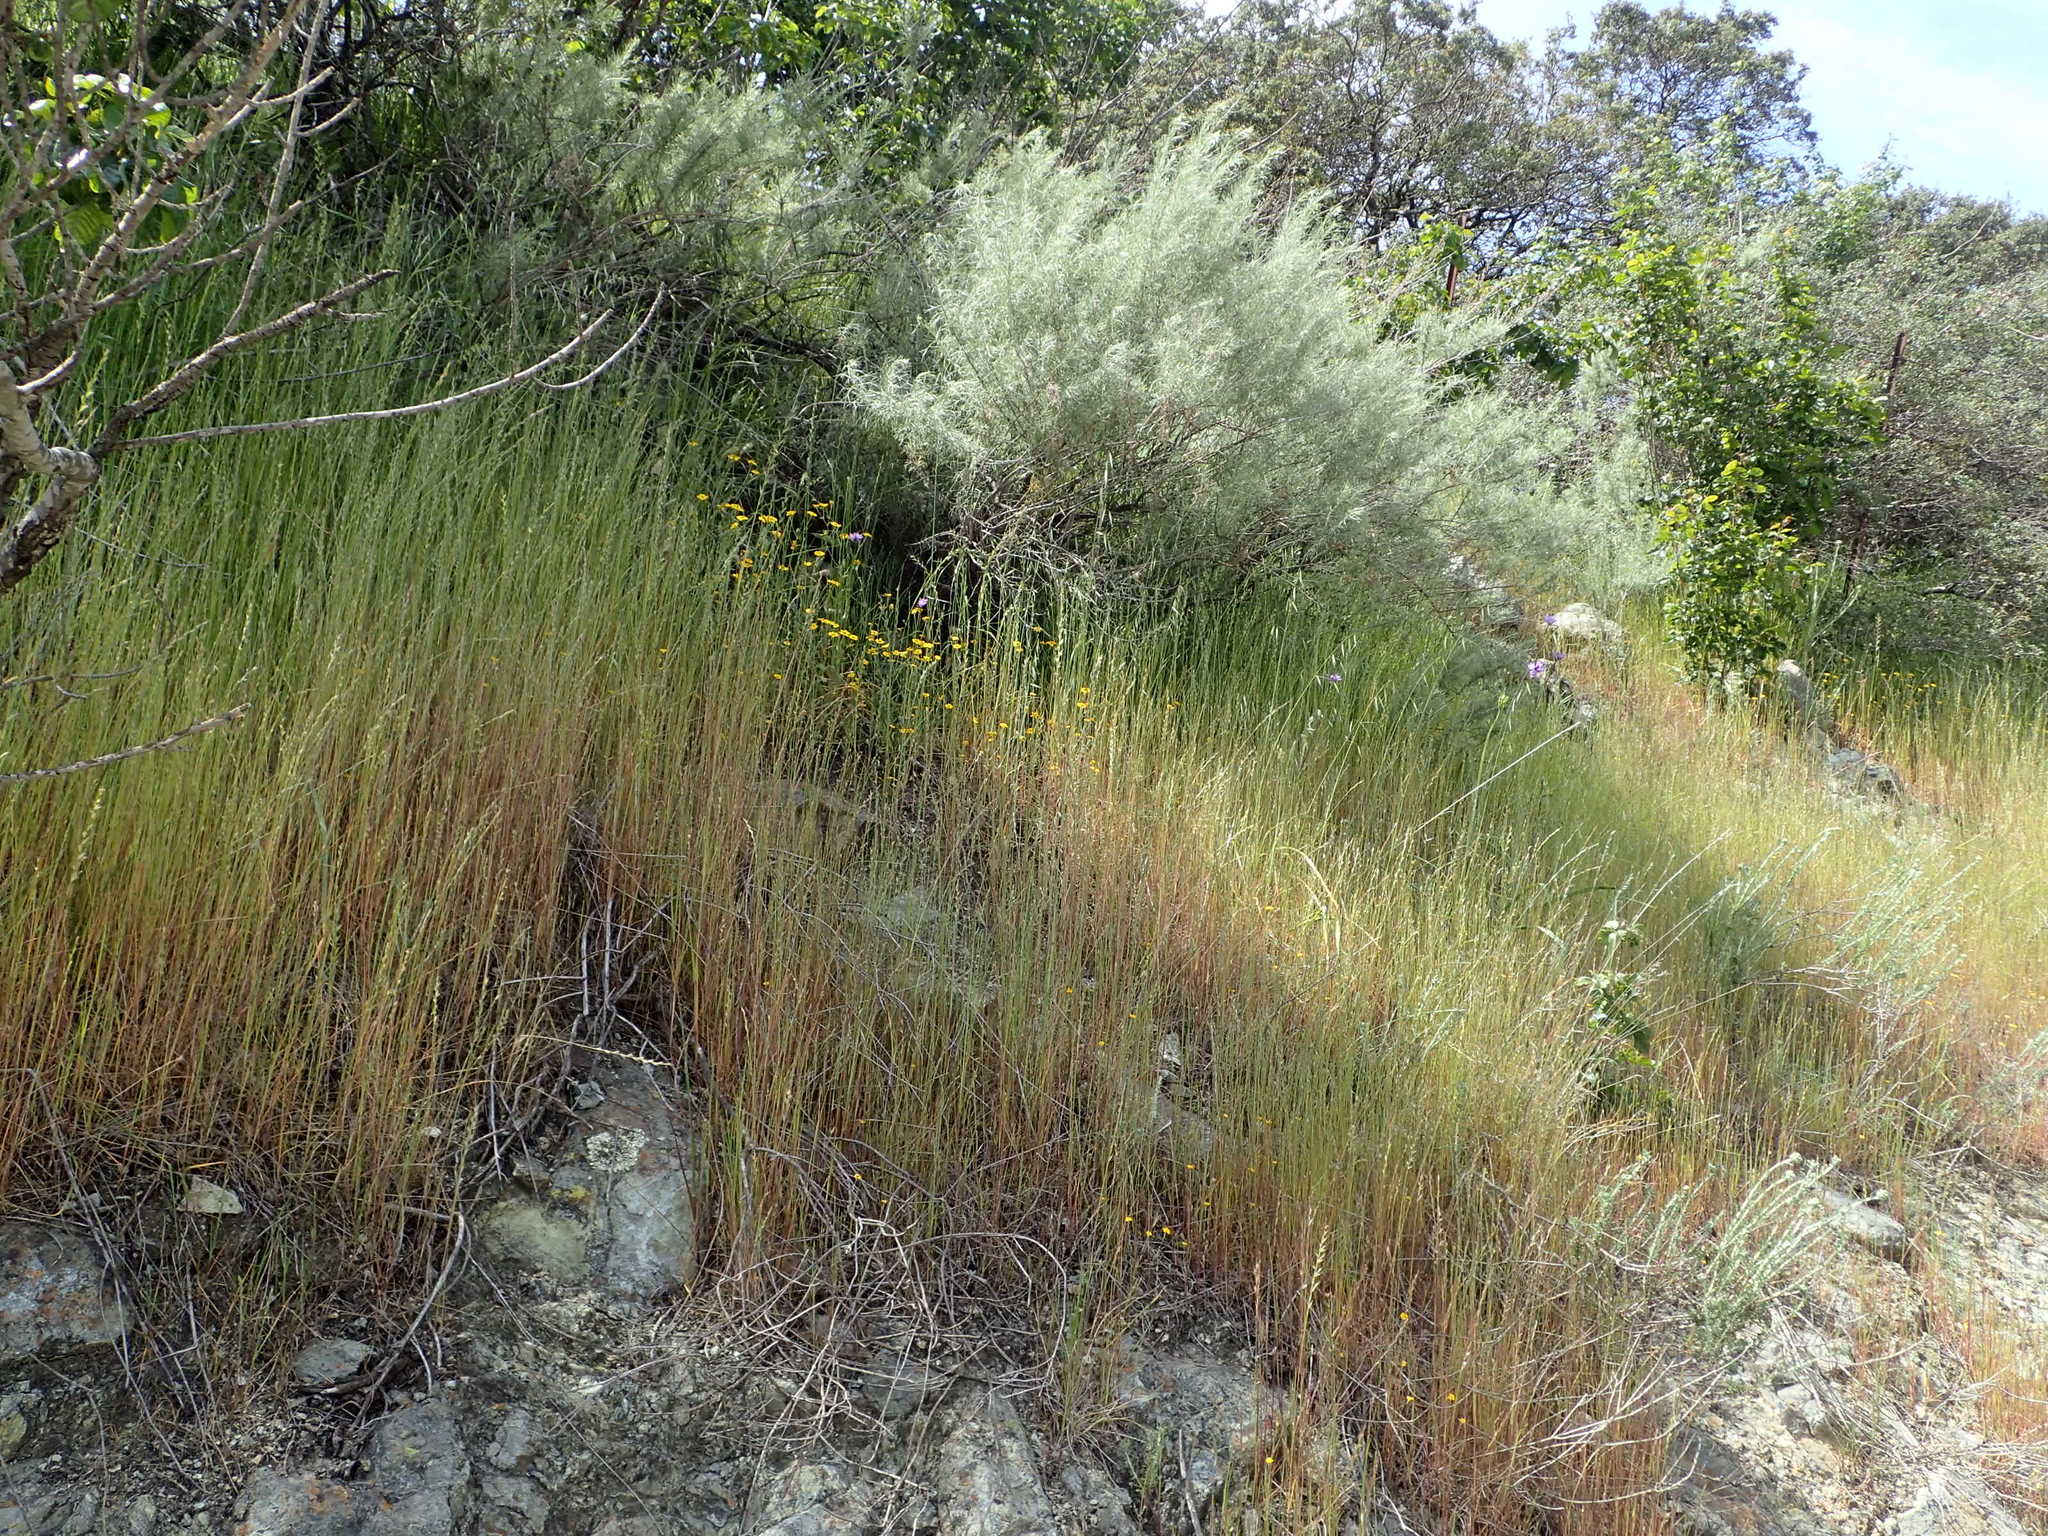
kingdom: Plantae
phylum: Tracheophyta
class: Magnoliopsida
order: Asterales
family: Asteraceae
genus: Monolopia
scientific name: Monolopia gracilens
